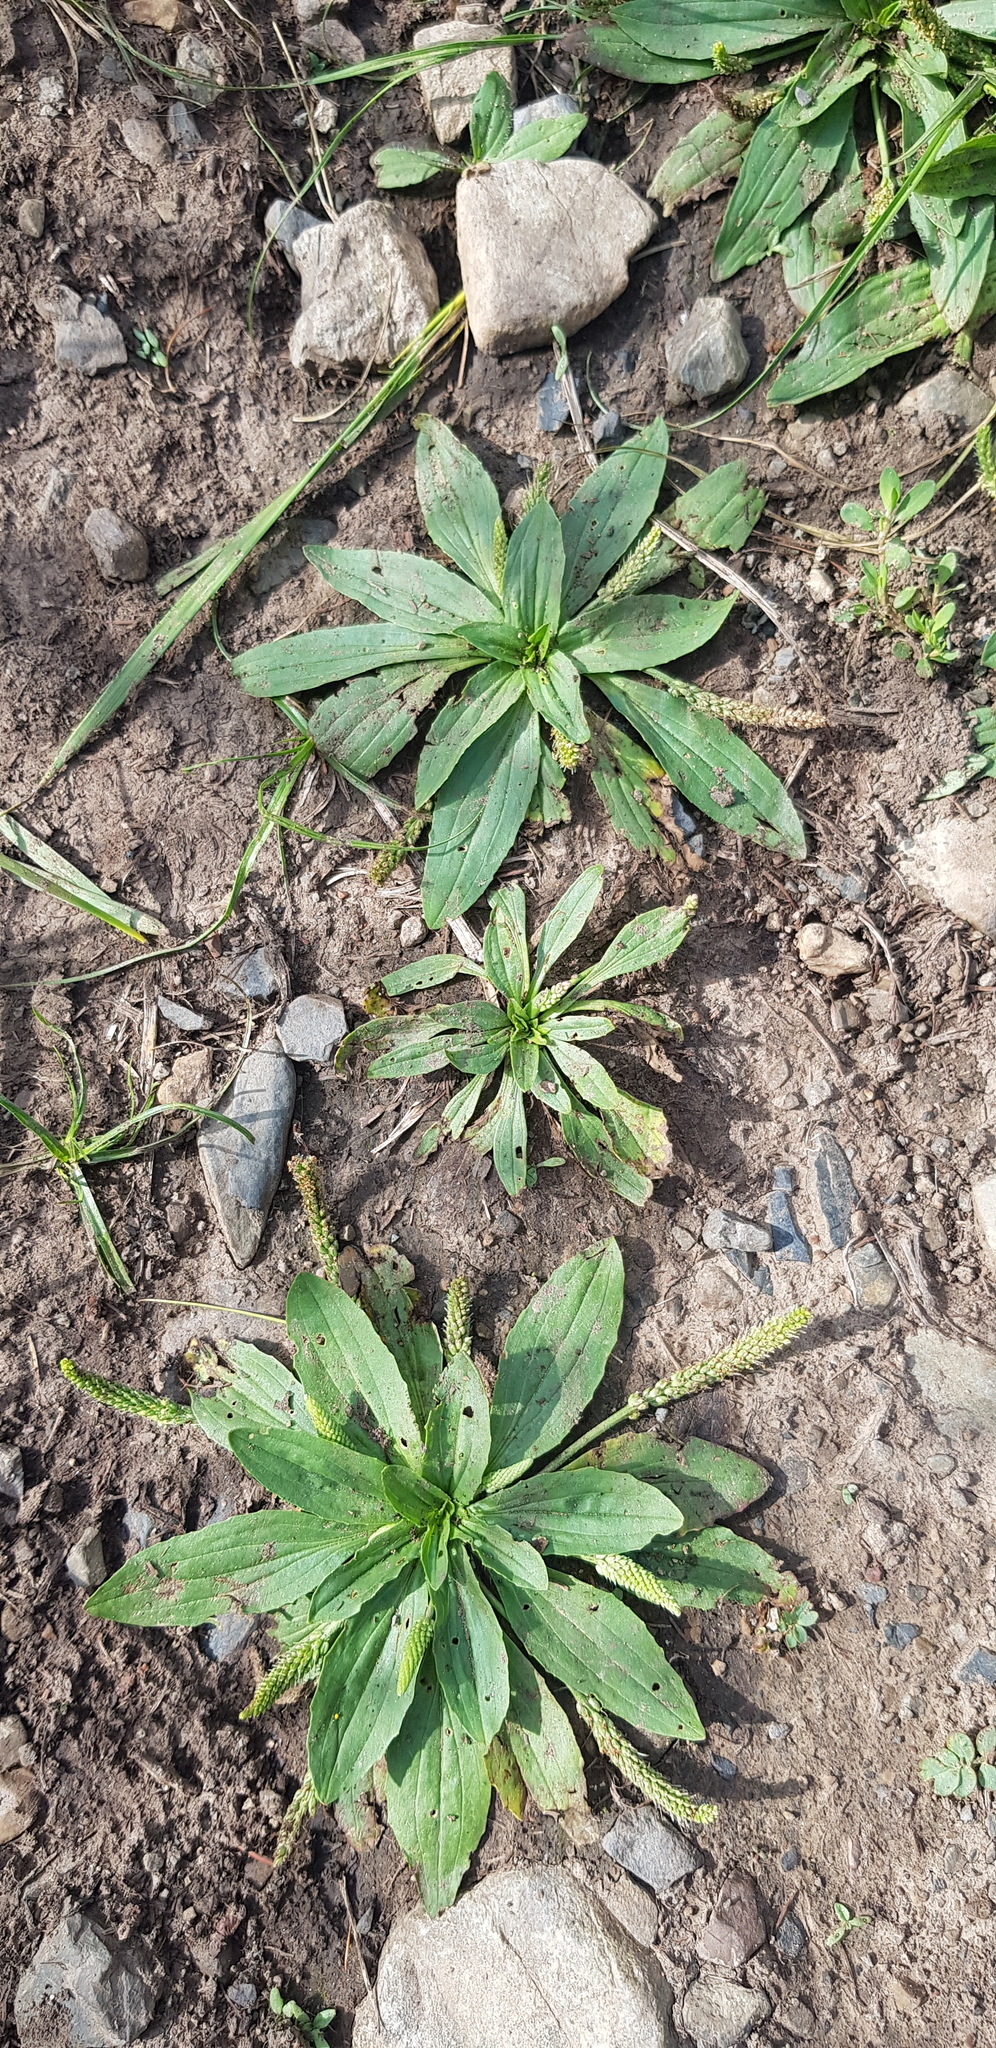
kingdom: Plantae
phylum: Tracheophyta
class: Magnoliopsida
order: Lamiales
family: Plantaginaceae
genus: Plantago
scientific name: Plantago depressa
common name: Depressed plantain
